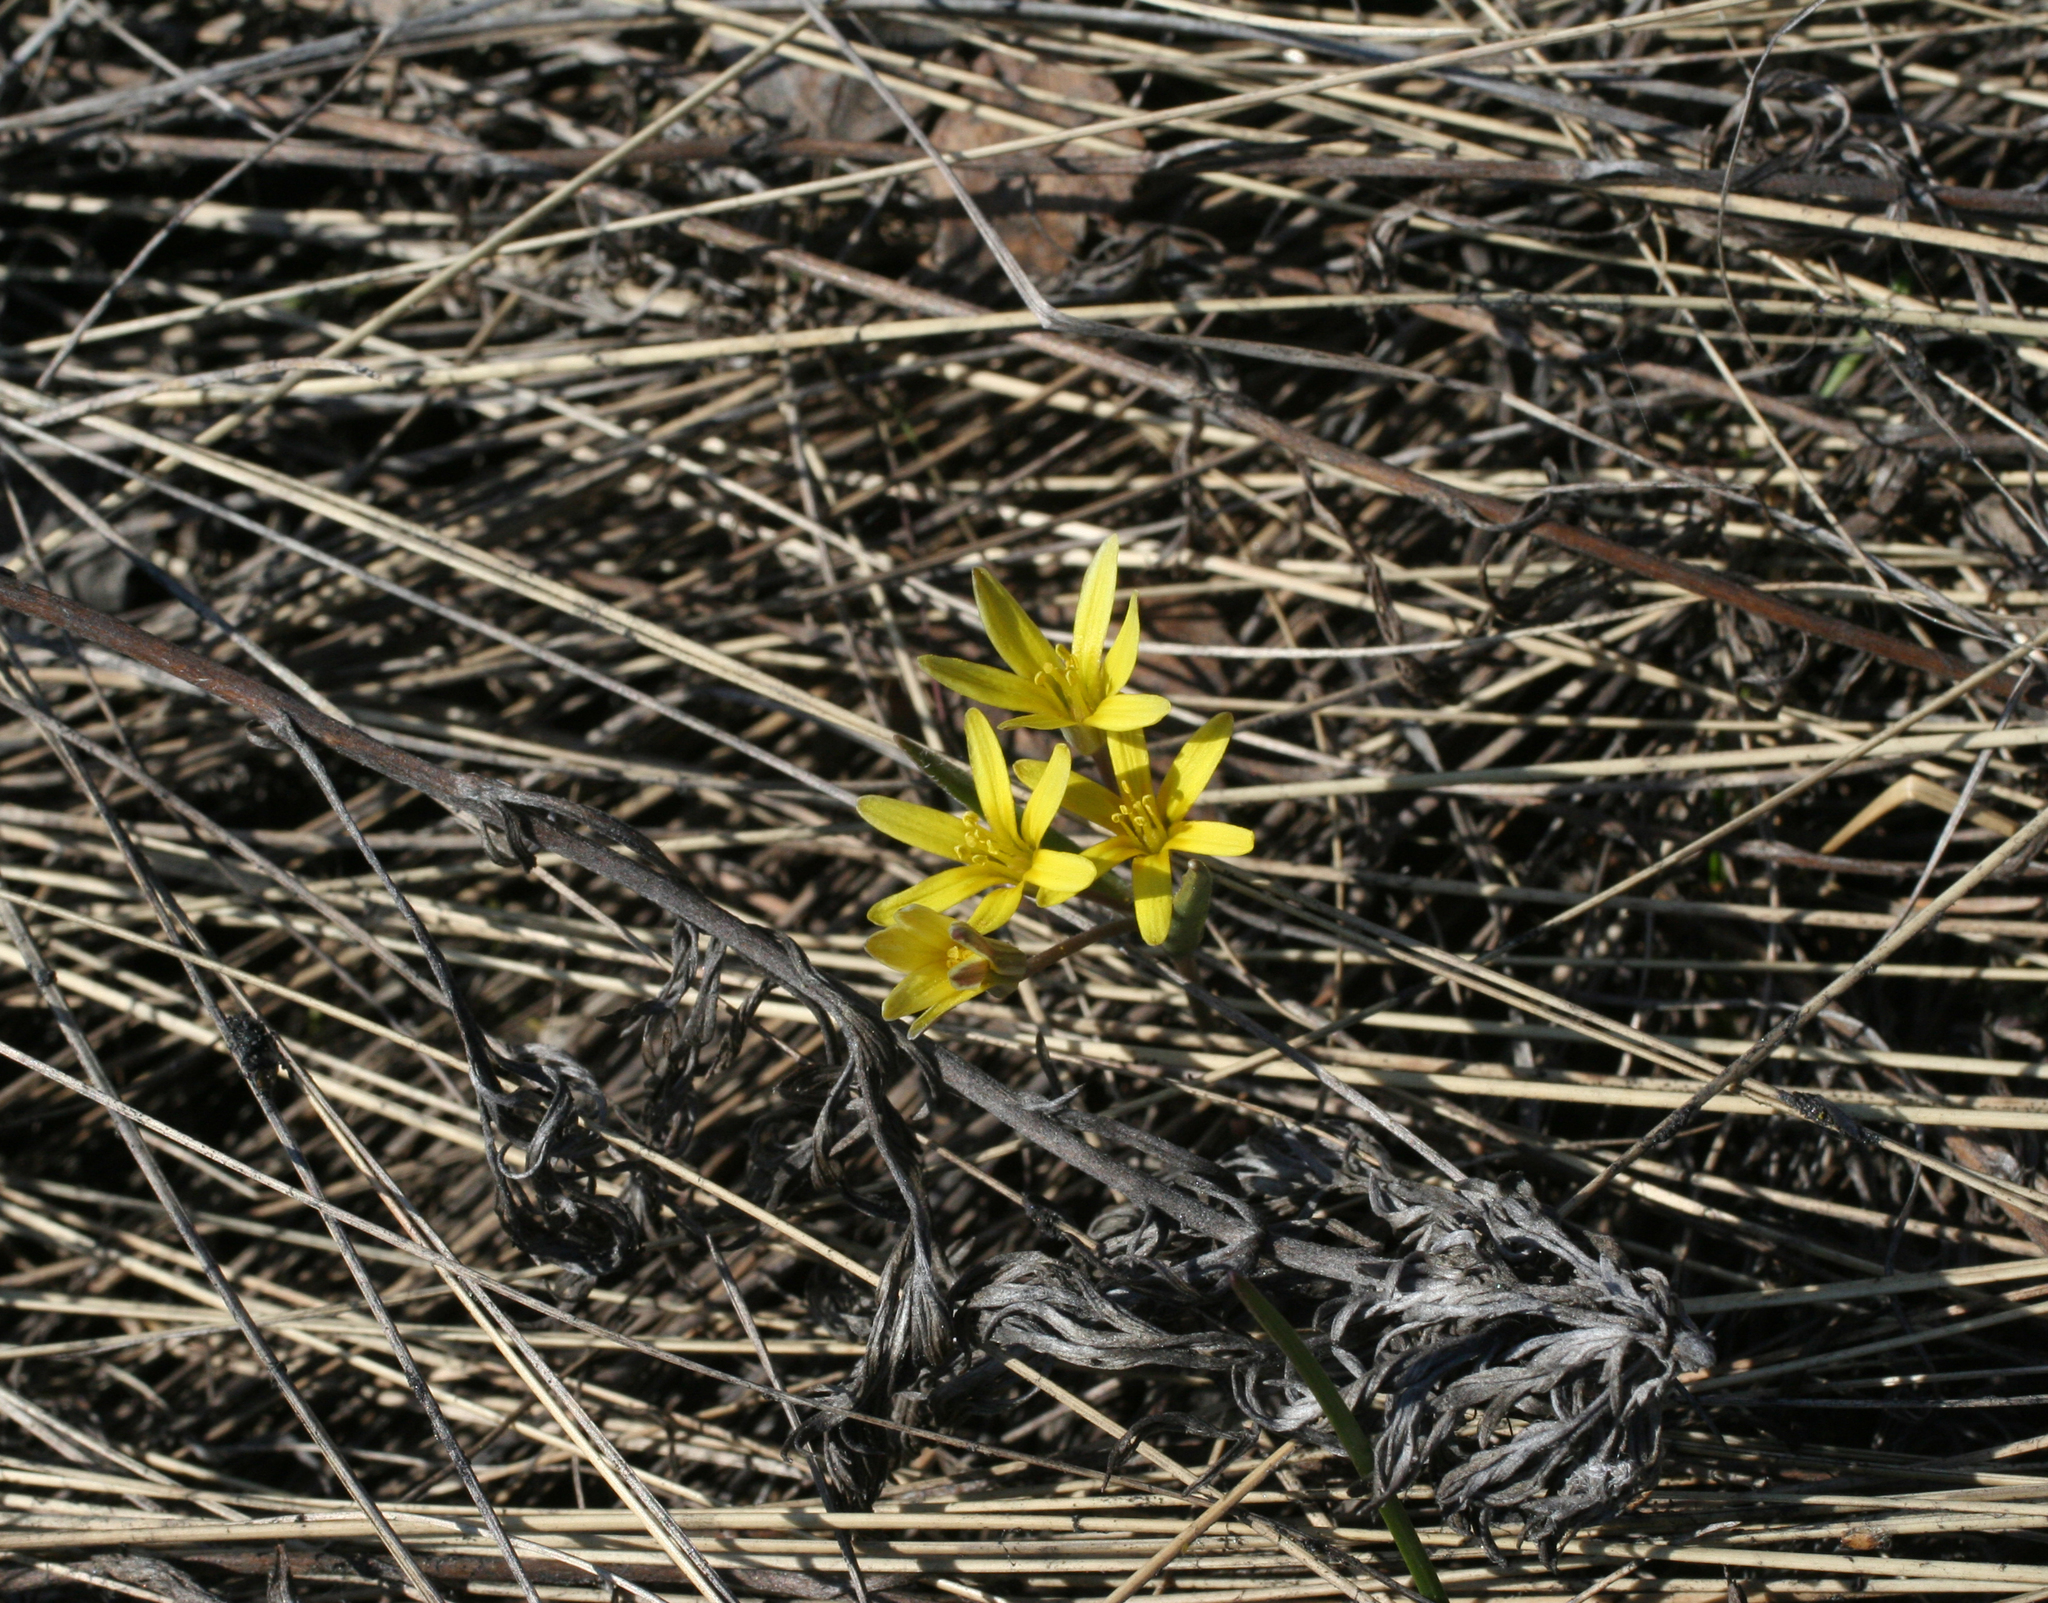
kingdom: Plantae
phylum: Tracheophyta
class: Liliopsida
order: Liliales
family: Liliaceae
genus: Gagea
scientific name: Gagea fedtschenkoana
